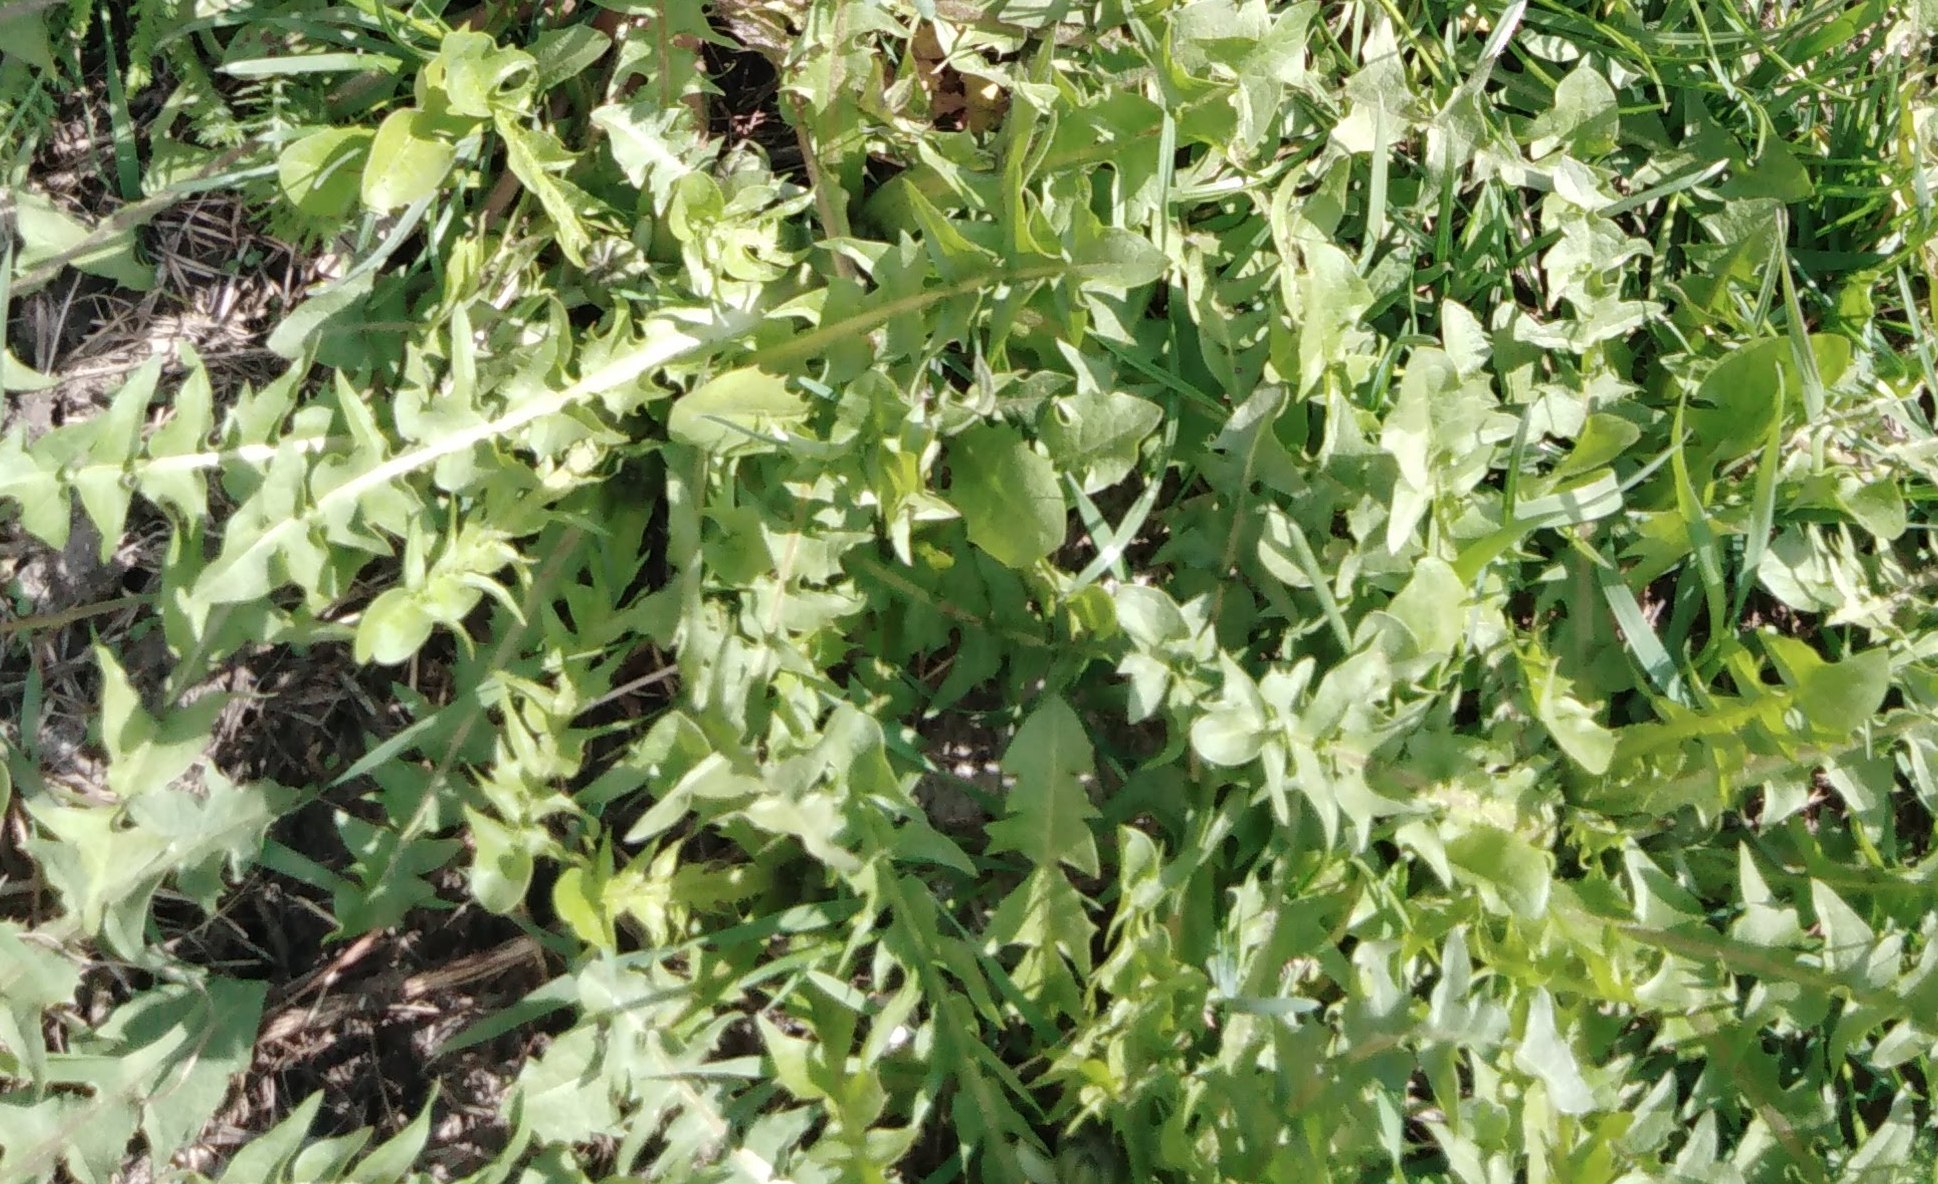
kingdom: Plantae
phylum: Tracheophyta
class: Magnoliopsida
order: Asterales
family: Asteraceae
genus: Taraxacum
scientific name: Taraxacum officinale
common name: Common dandelion
